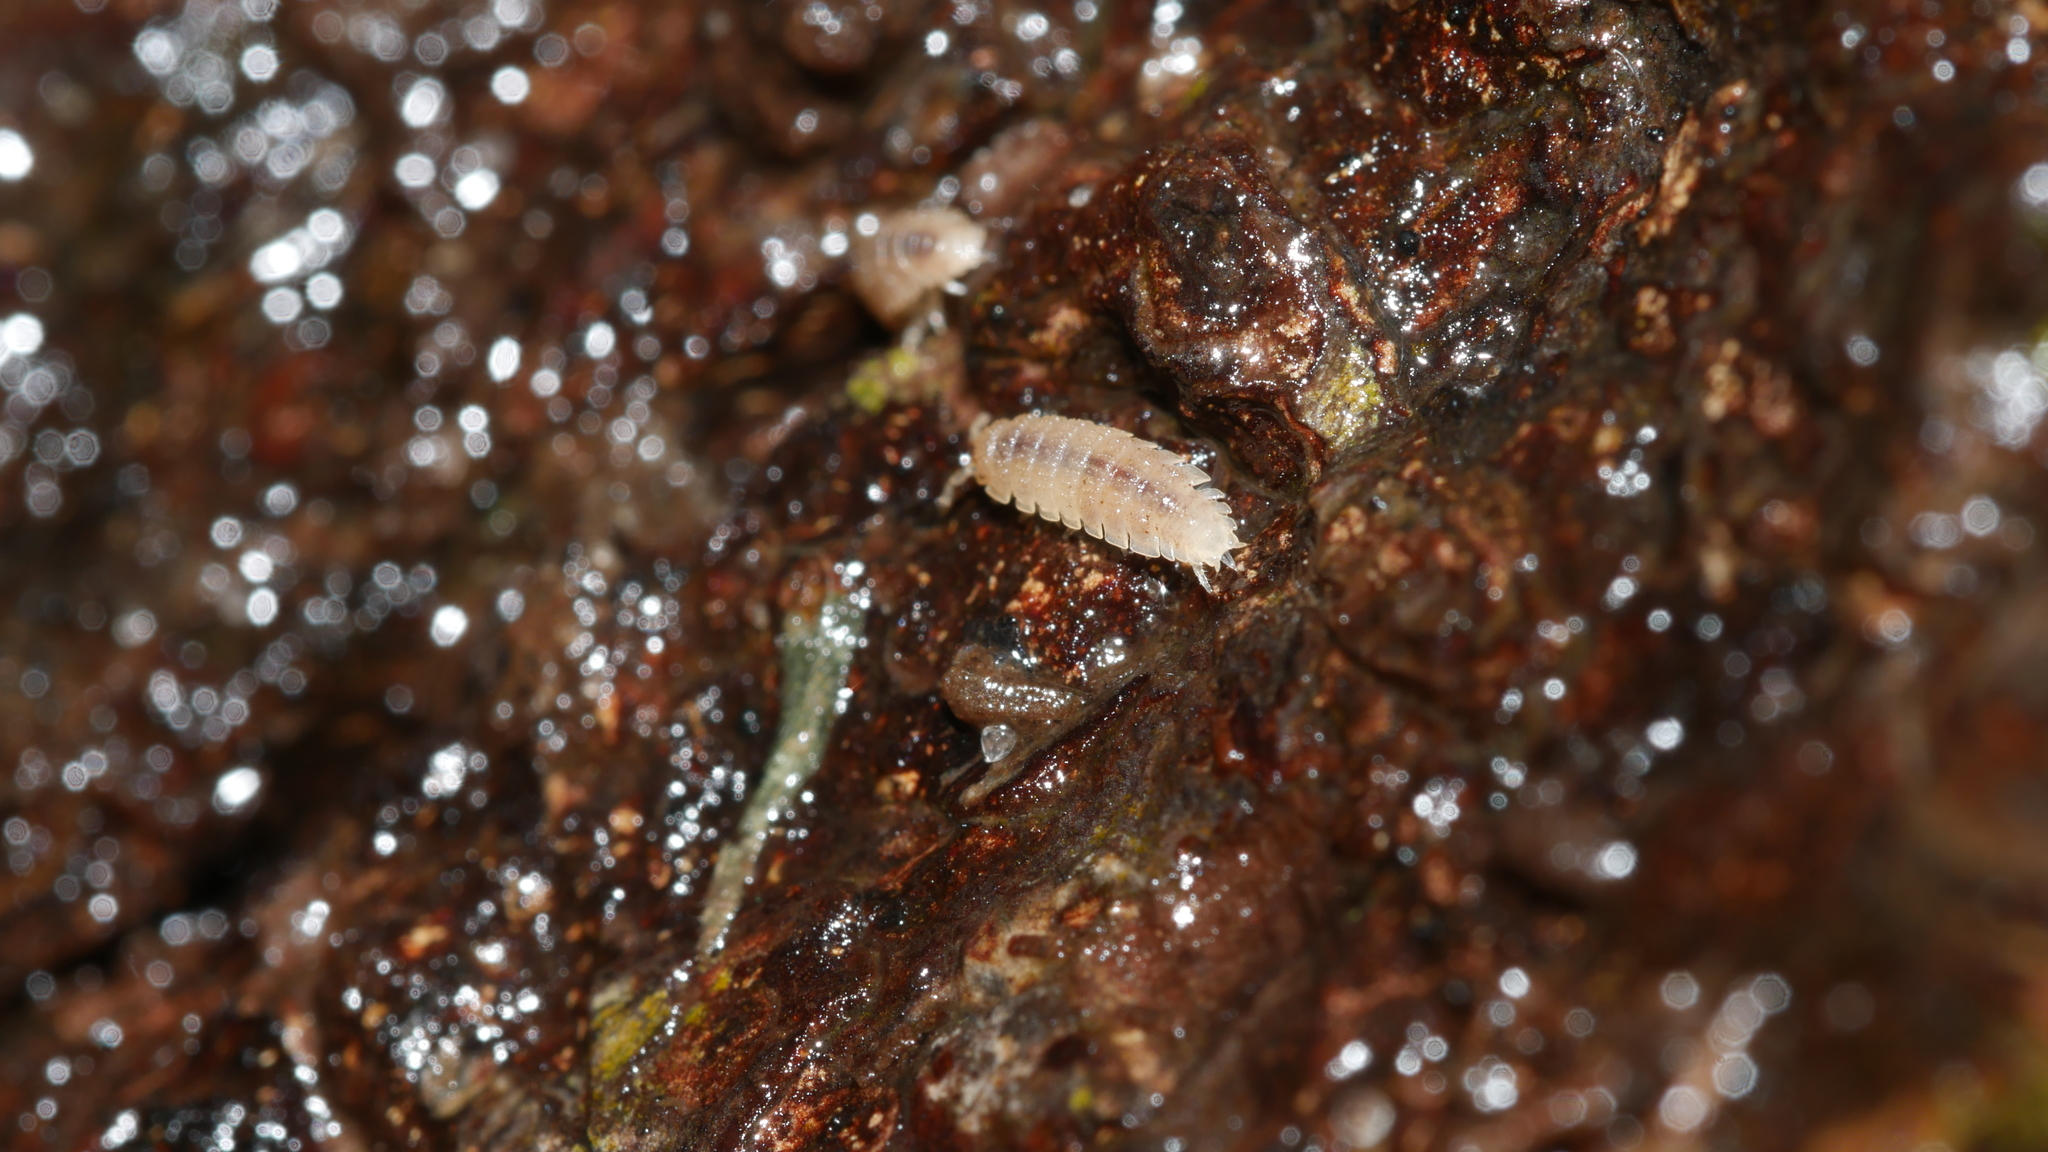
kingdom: Animalia
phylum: Arthropoda
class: Malacostraca
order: Isopoda
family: Trichoniscidae
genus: Haplophthalmus
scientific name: Haplophthalmus danicus
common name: Pillbug
